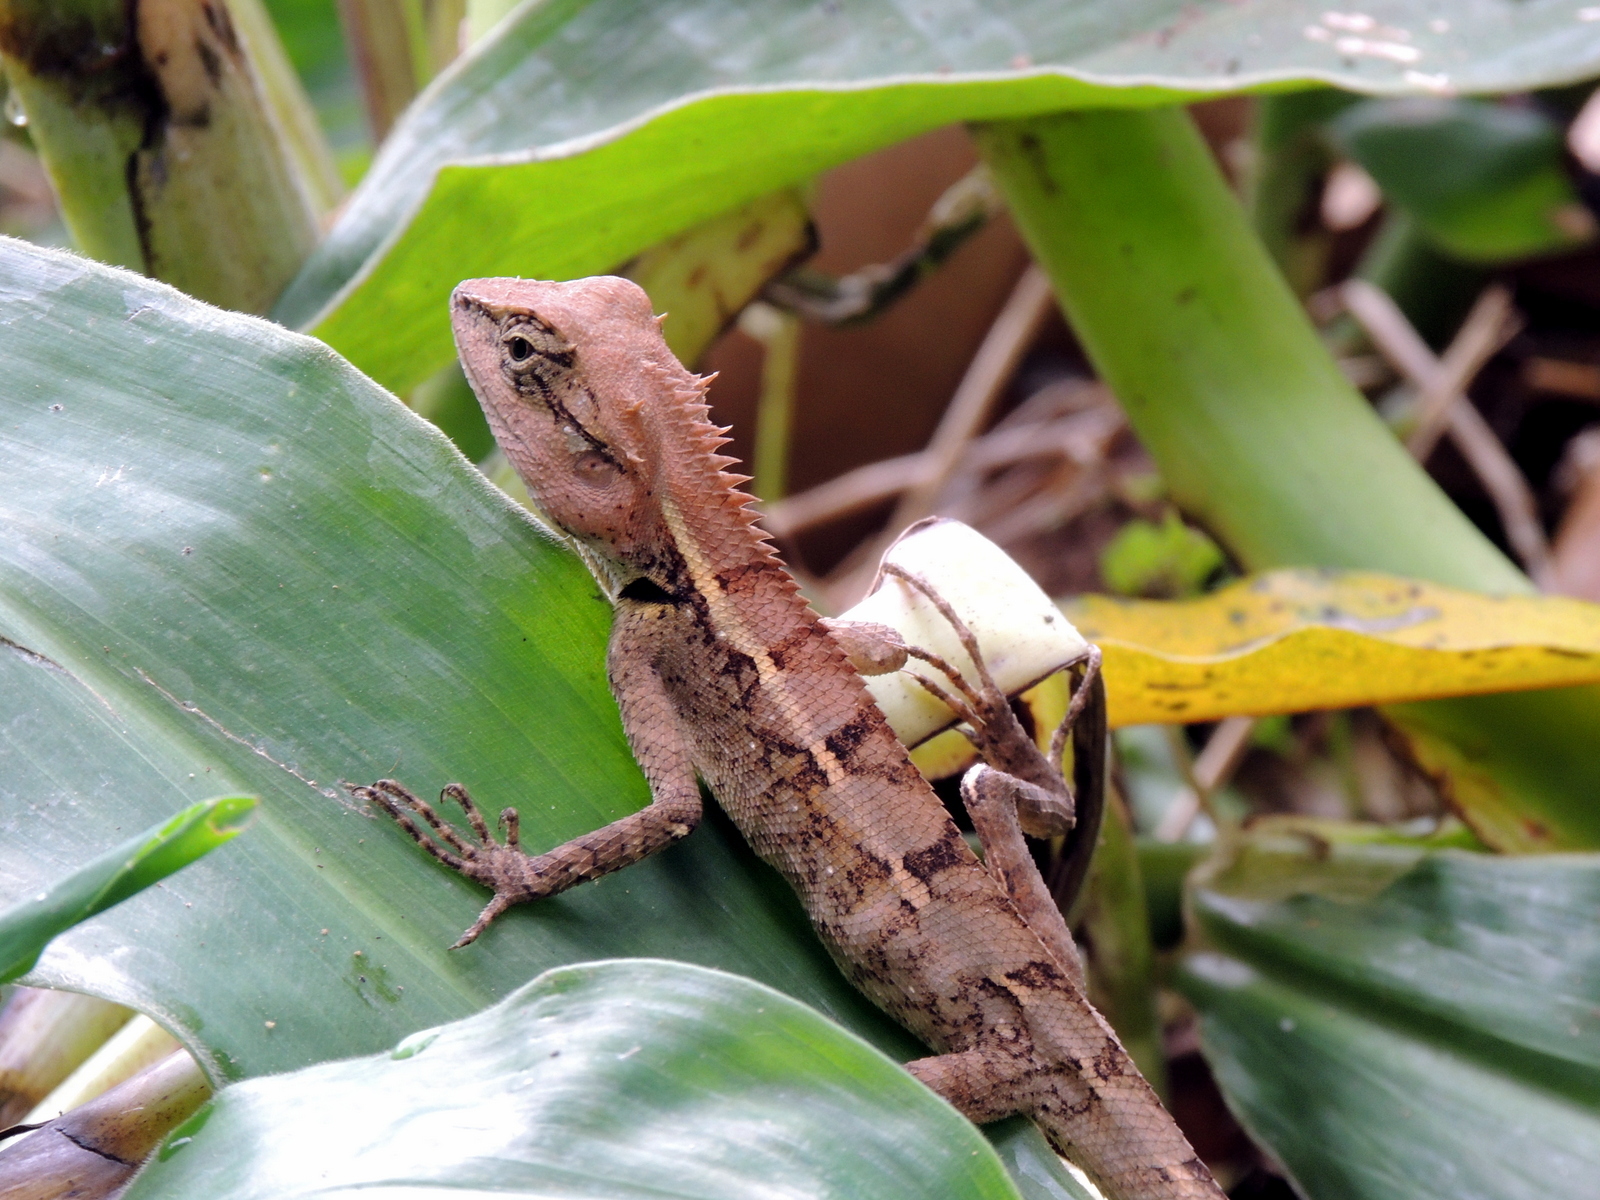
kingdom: Animalia
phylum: Chordata
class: Squamata
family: Agamidae
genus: Calotes
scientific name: Calotes emma
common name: Thailand bloodsucker
